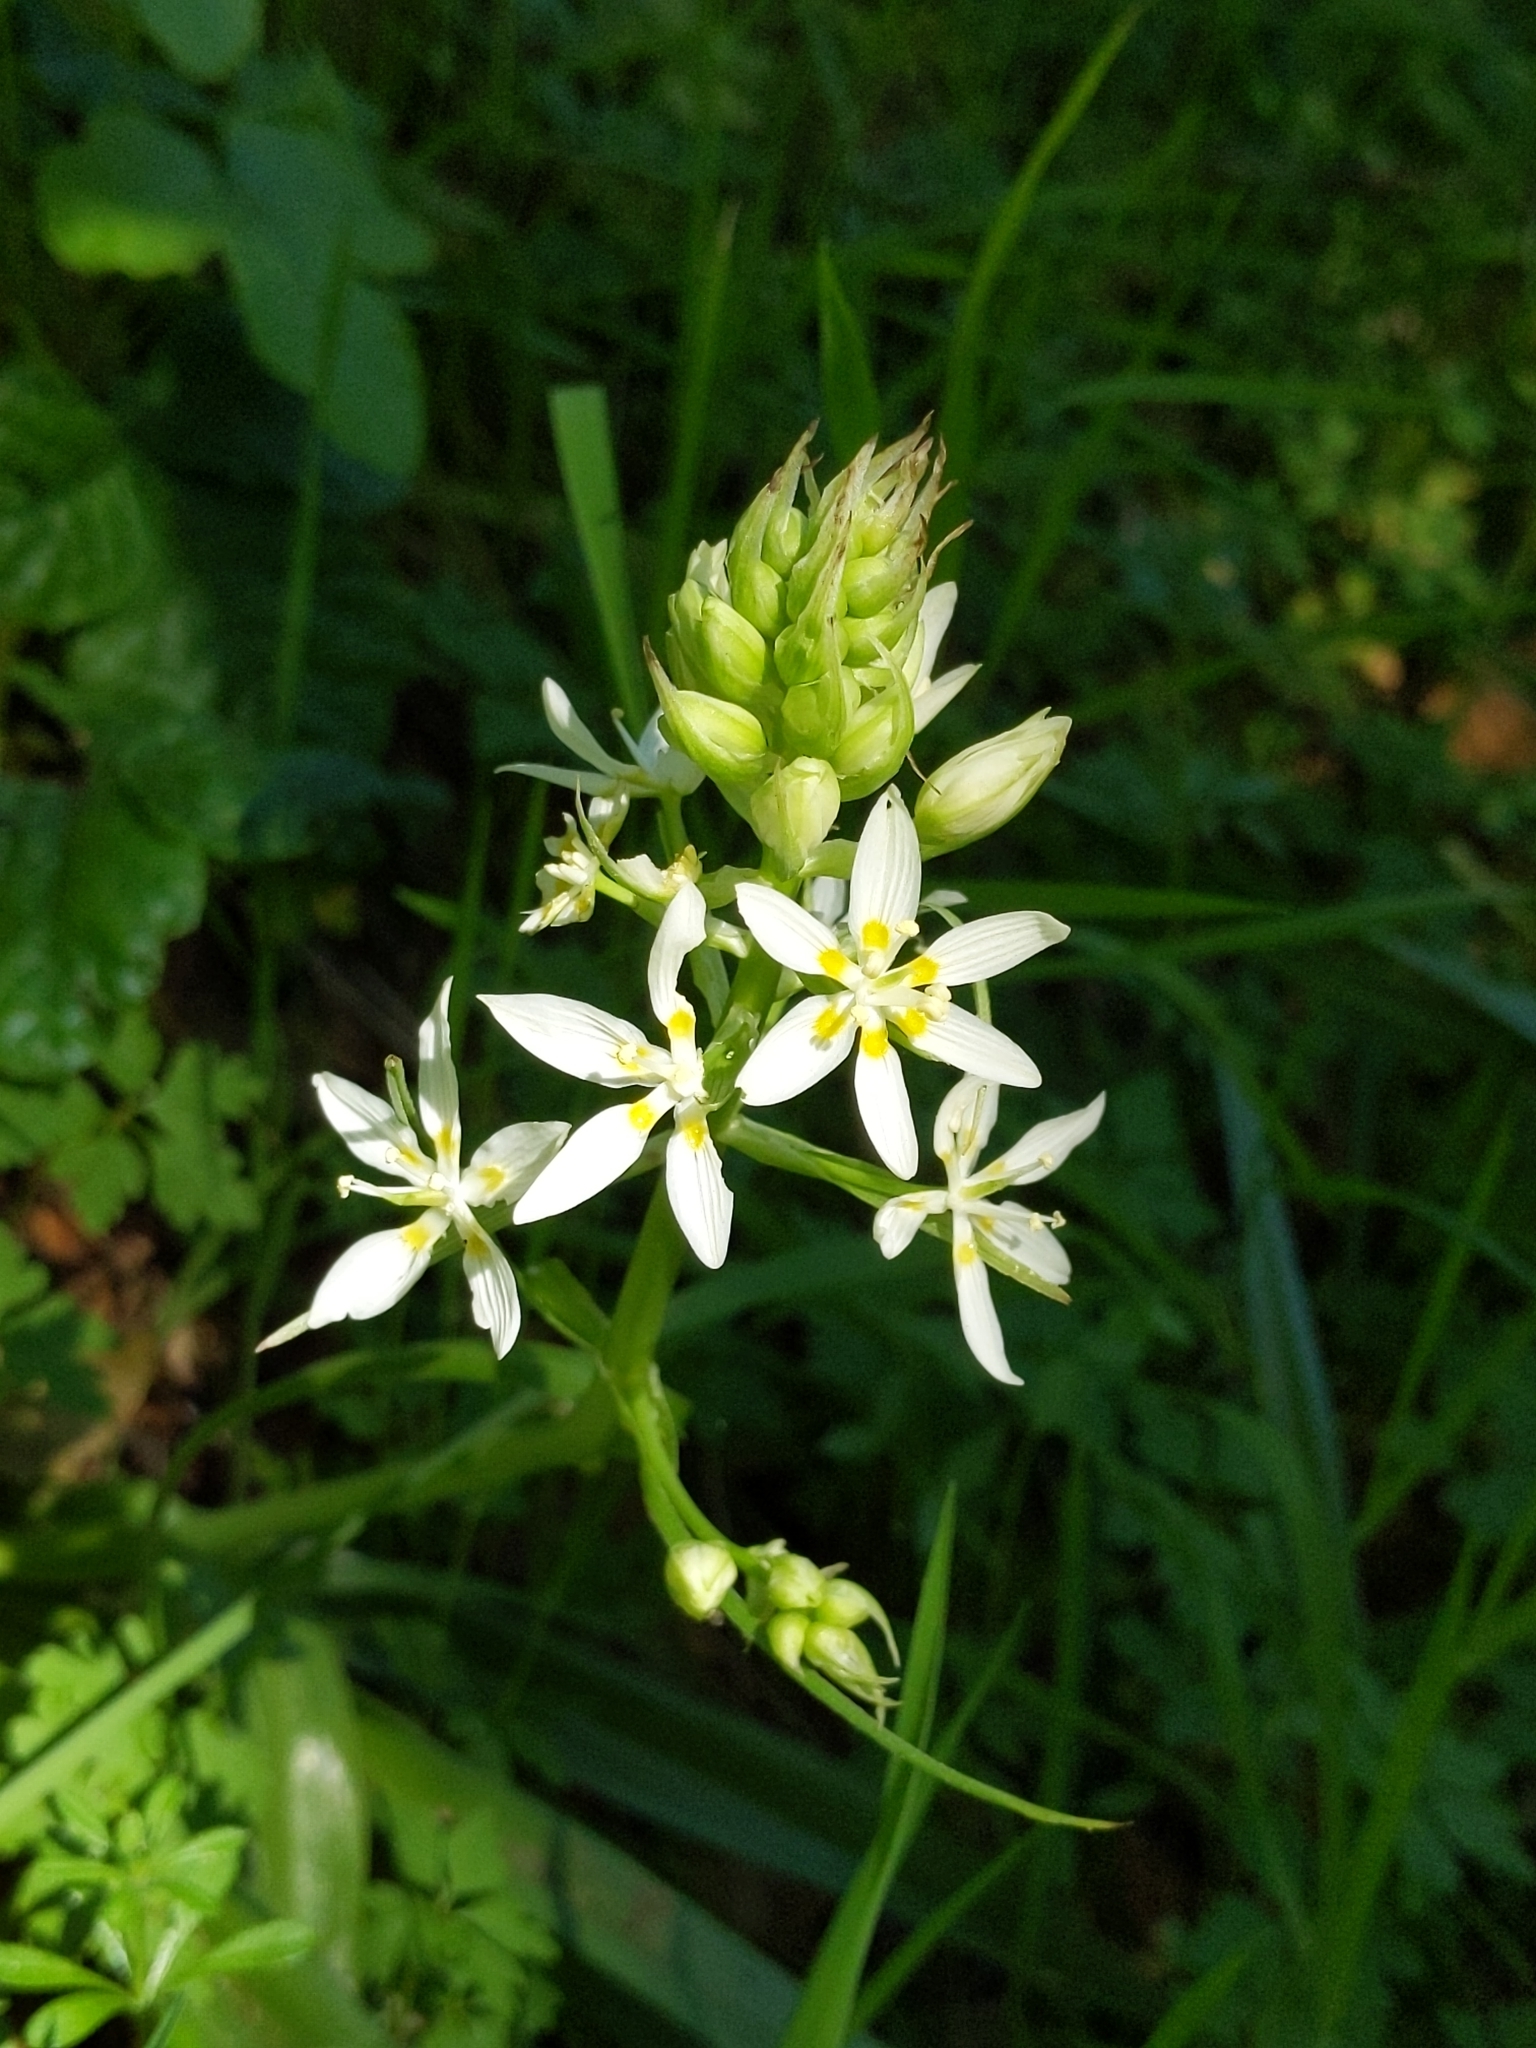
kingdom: Plantae
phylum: Tracheophyta
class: Liliopsida
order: Liliales
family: Melanthiaceae
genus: Toxicoscordion
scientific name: Toxicoscordion fremontii
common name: Fremont's death camas
